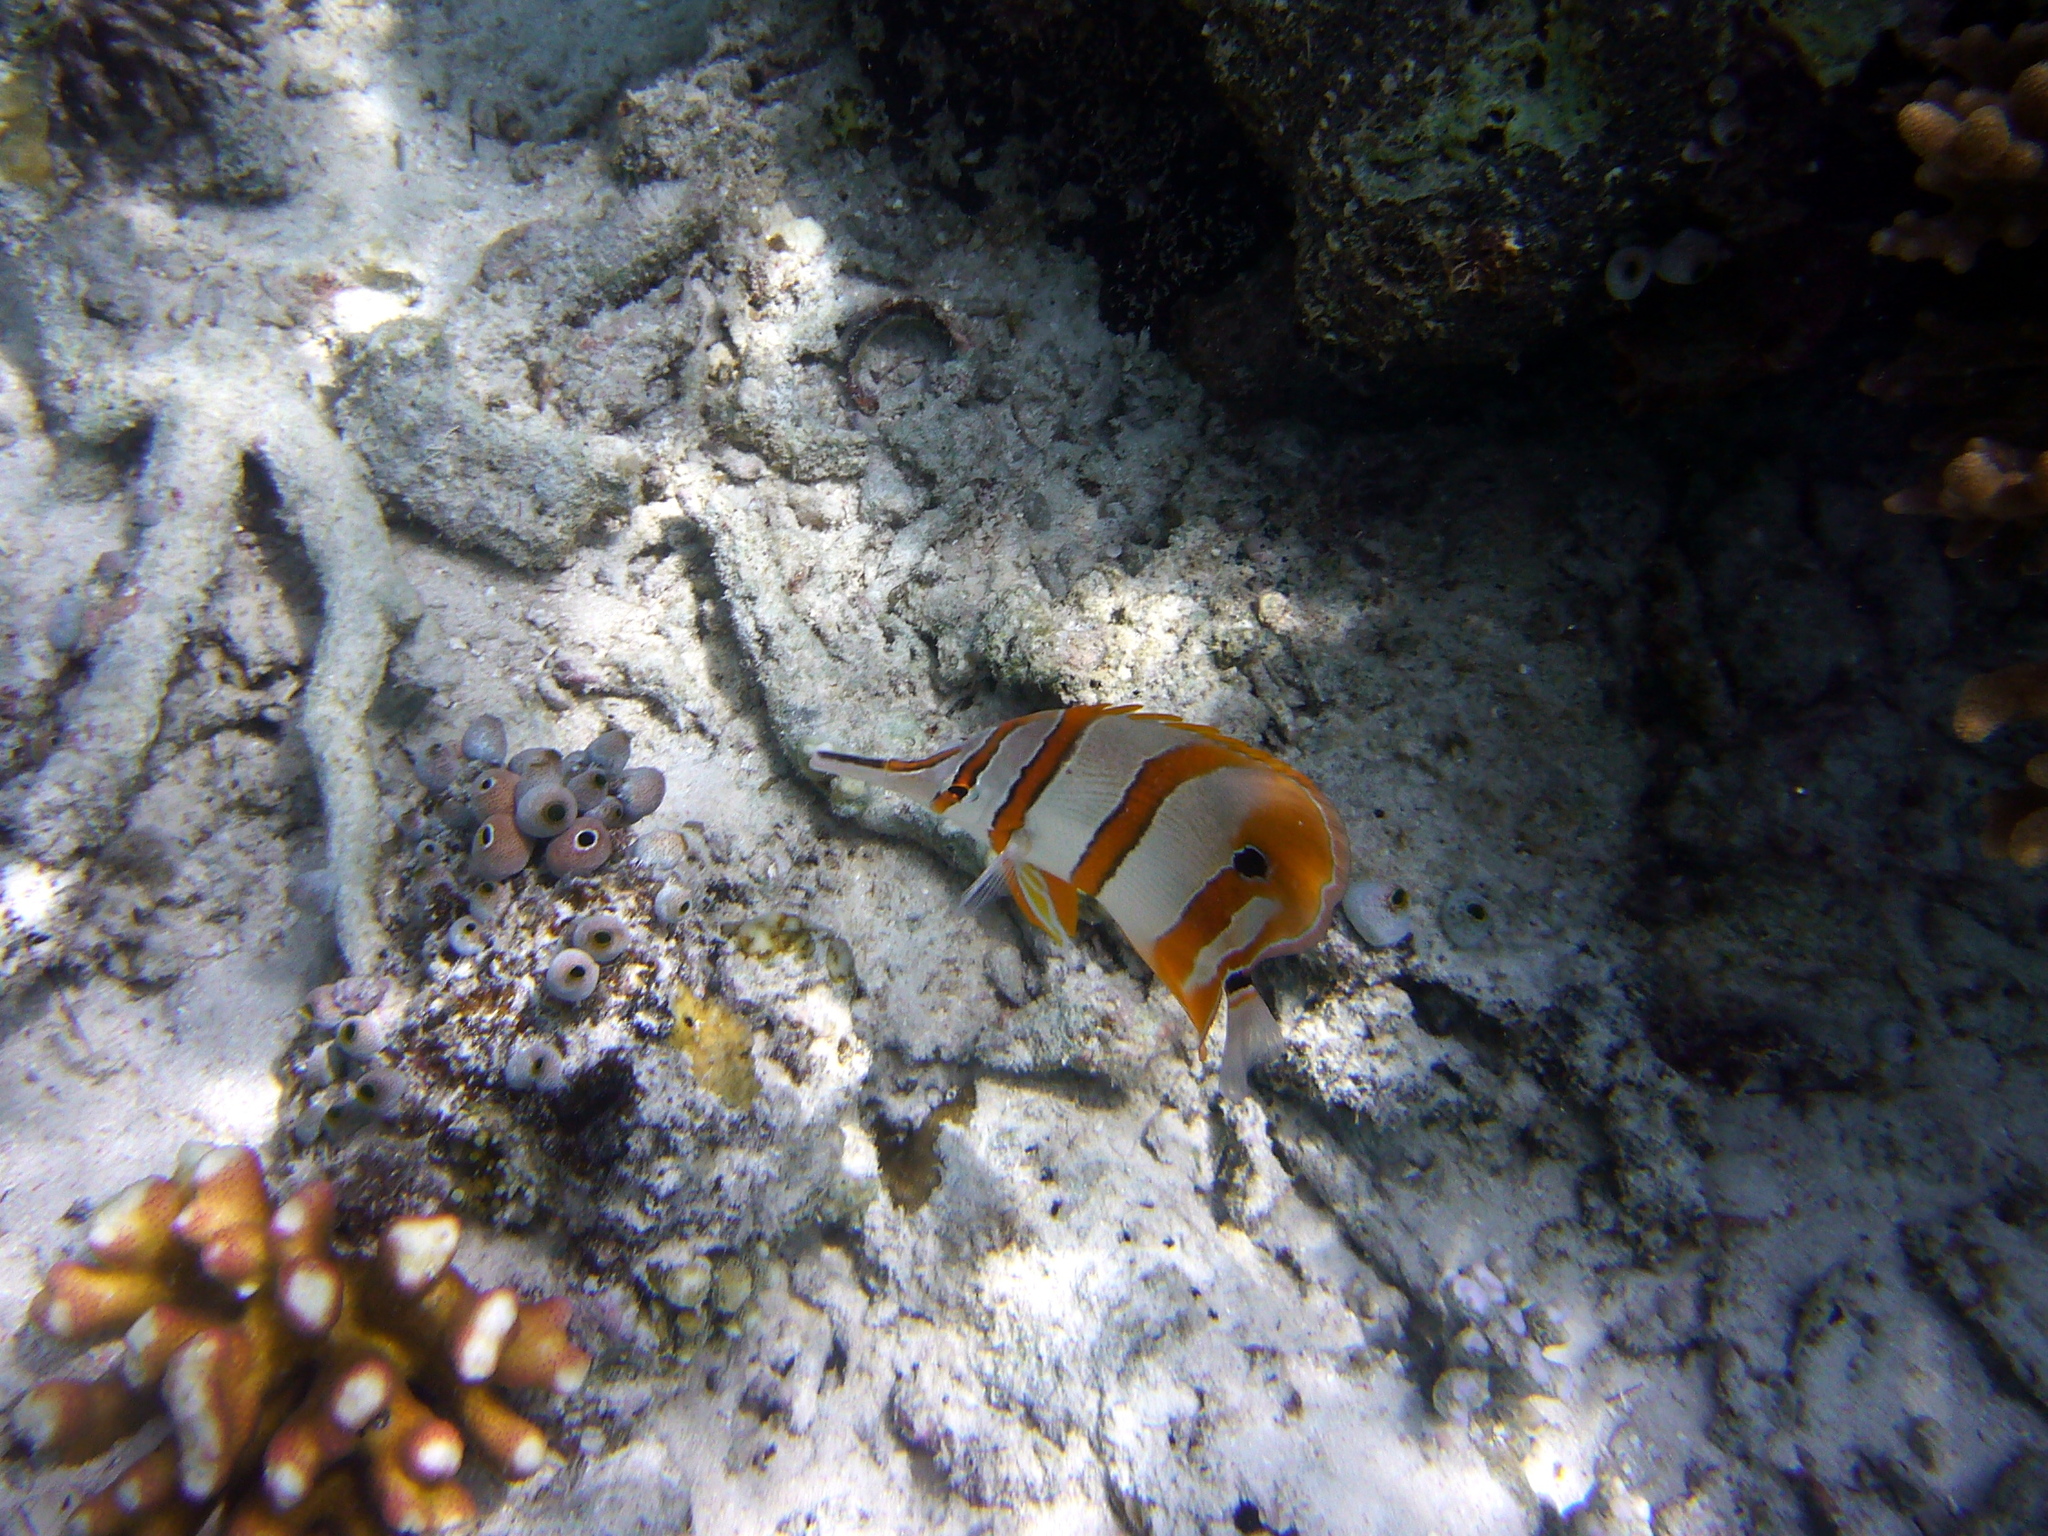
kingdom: Animalia
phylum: Chordata
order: Perciformes
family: Chaetodontidae
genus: Chelmon
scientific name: Chelmon rostratus
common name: Beaked butterflyfish
